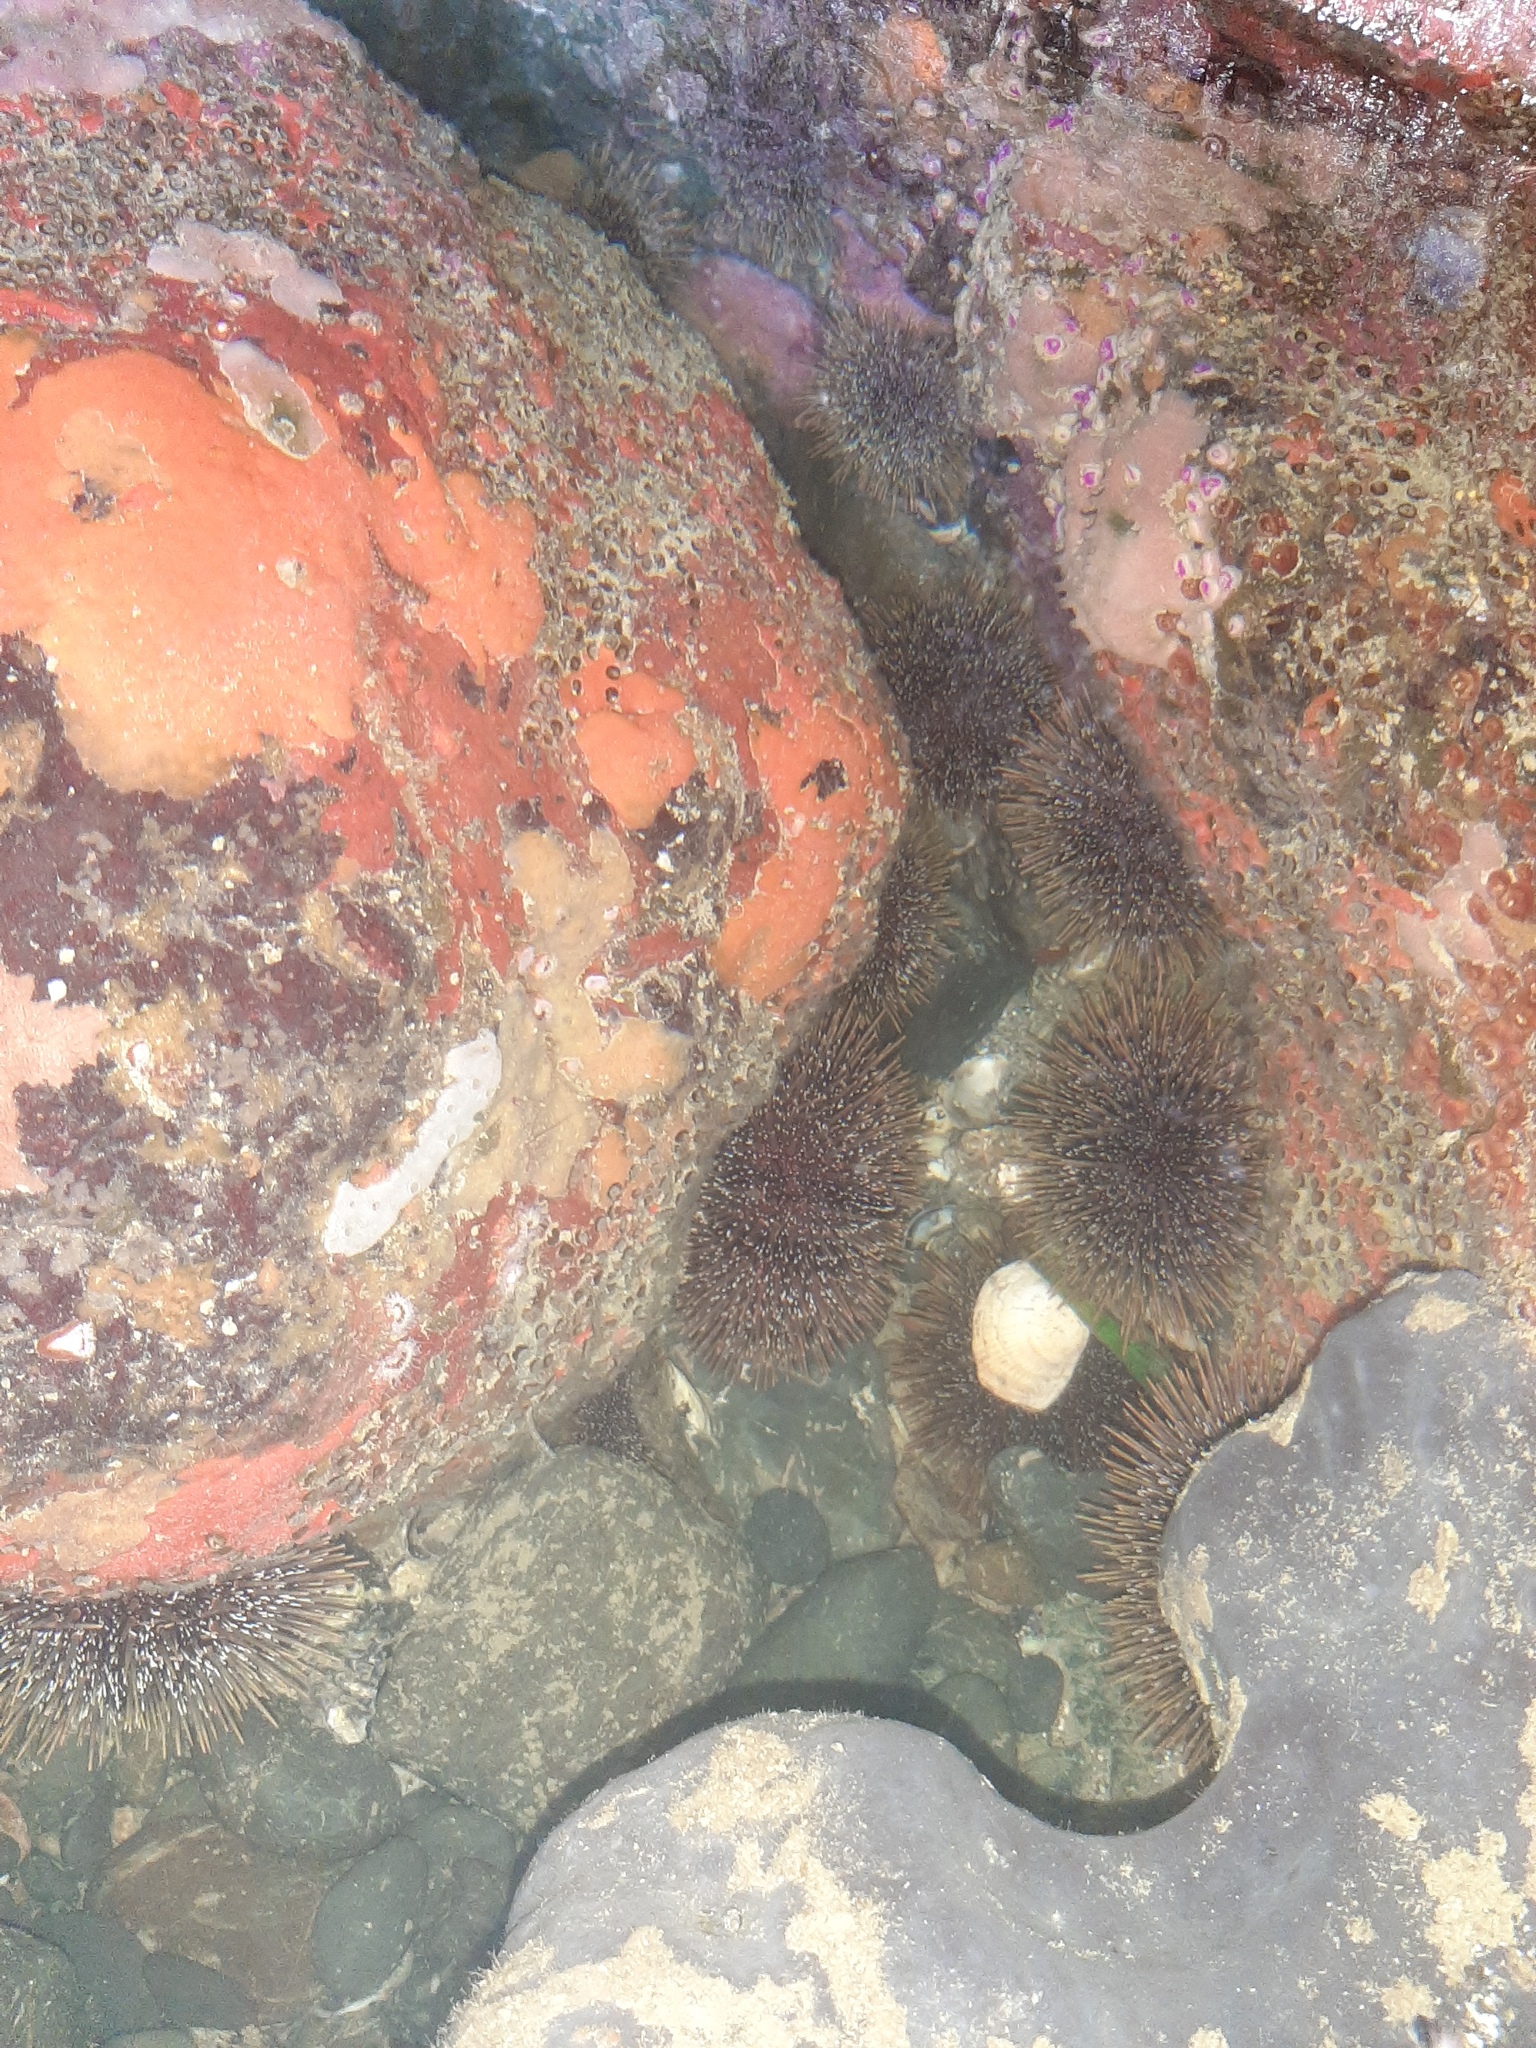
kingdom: Animalia
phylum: Echinodermata
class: Echinoidea
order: Camarodonta
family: Echinometridae
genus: Evechinus
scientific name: Evechinus chloroticus
